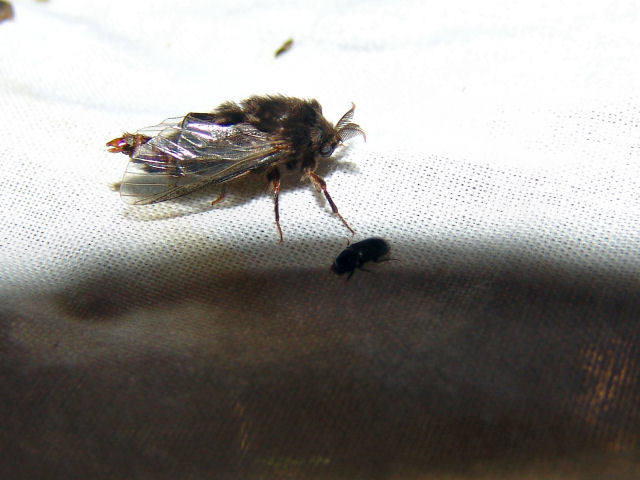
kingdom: Animalia
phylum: Arthropoda
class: Insecta
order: Lepidoptera
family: Psychidae
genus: Thyridopteryx
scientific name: Thyridopteryx ephemeraeformis
